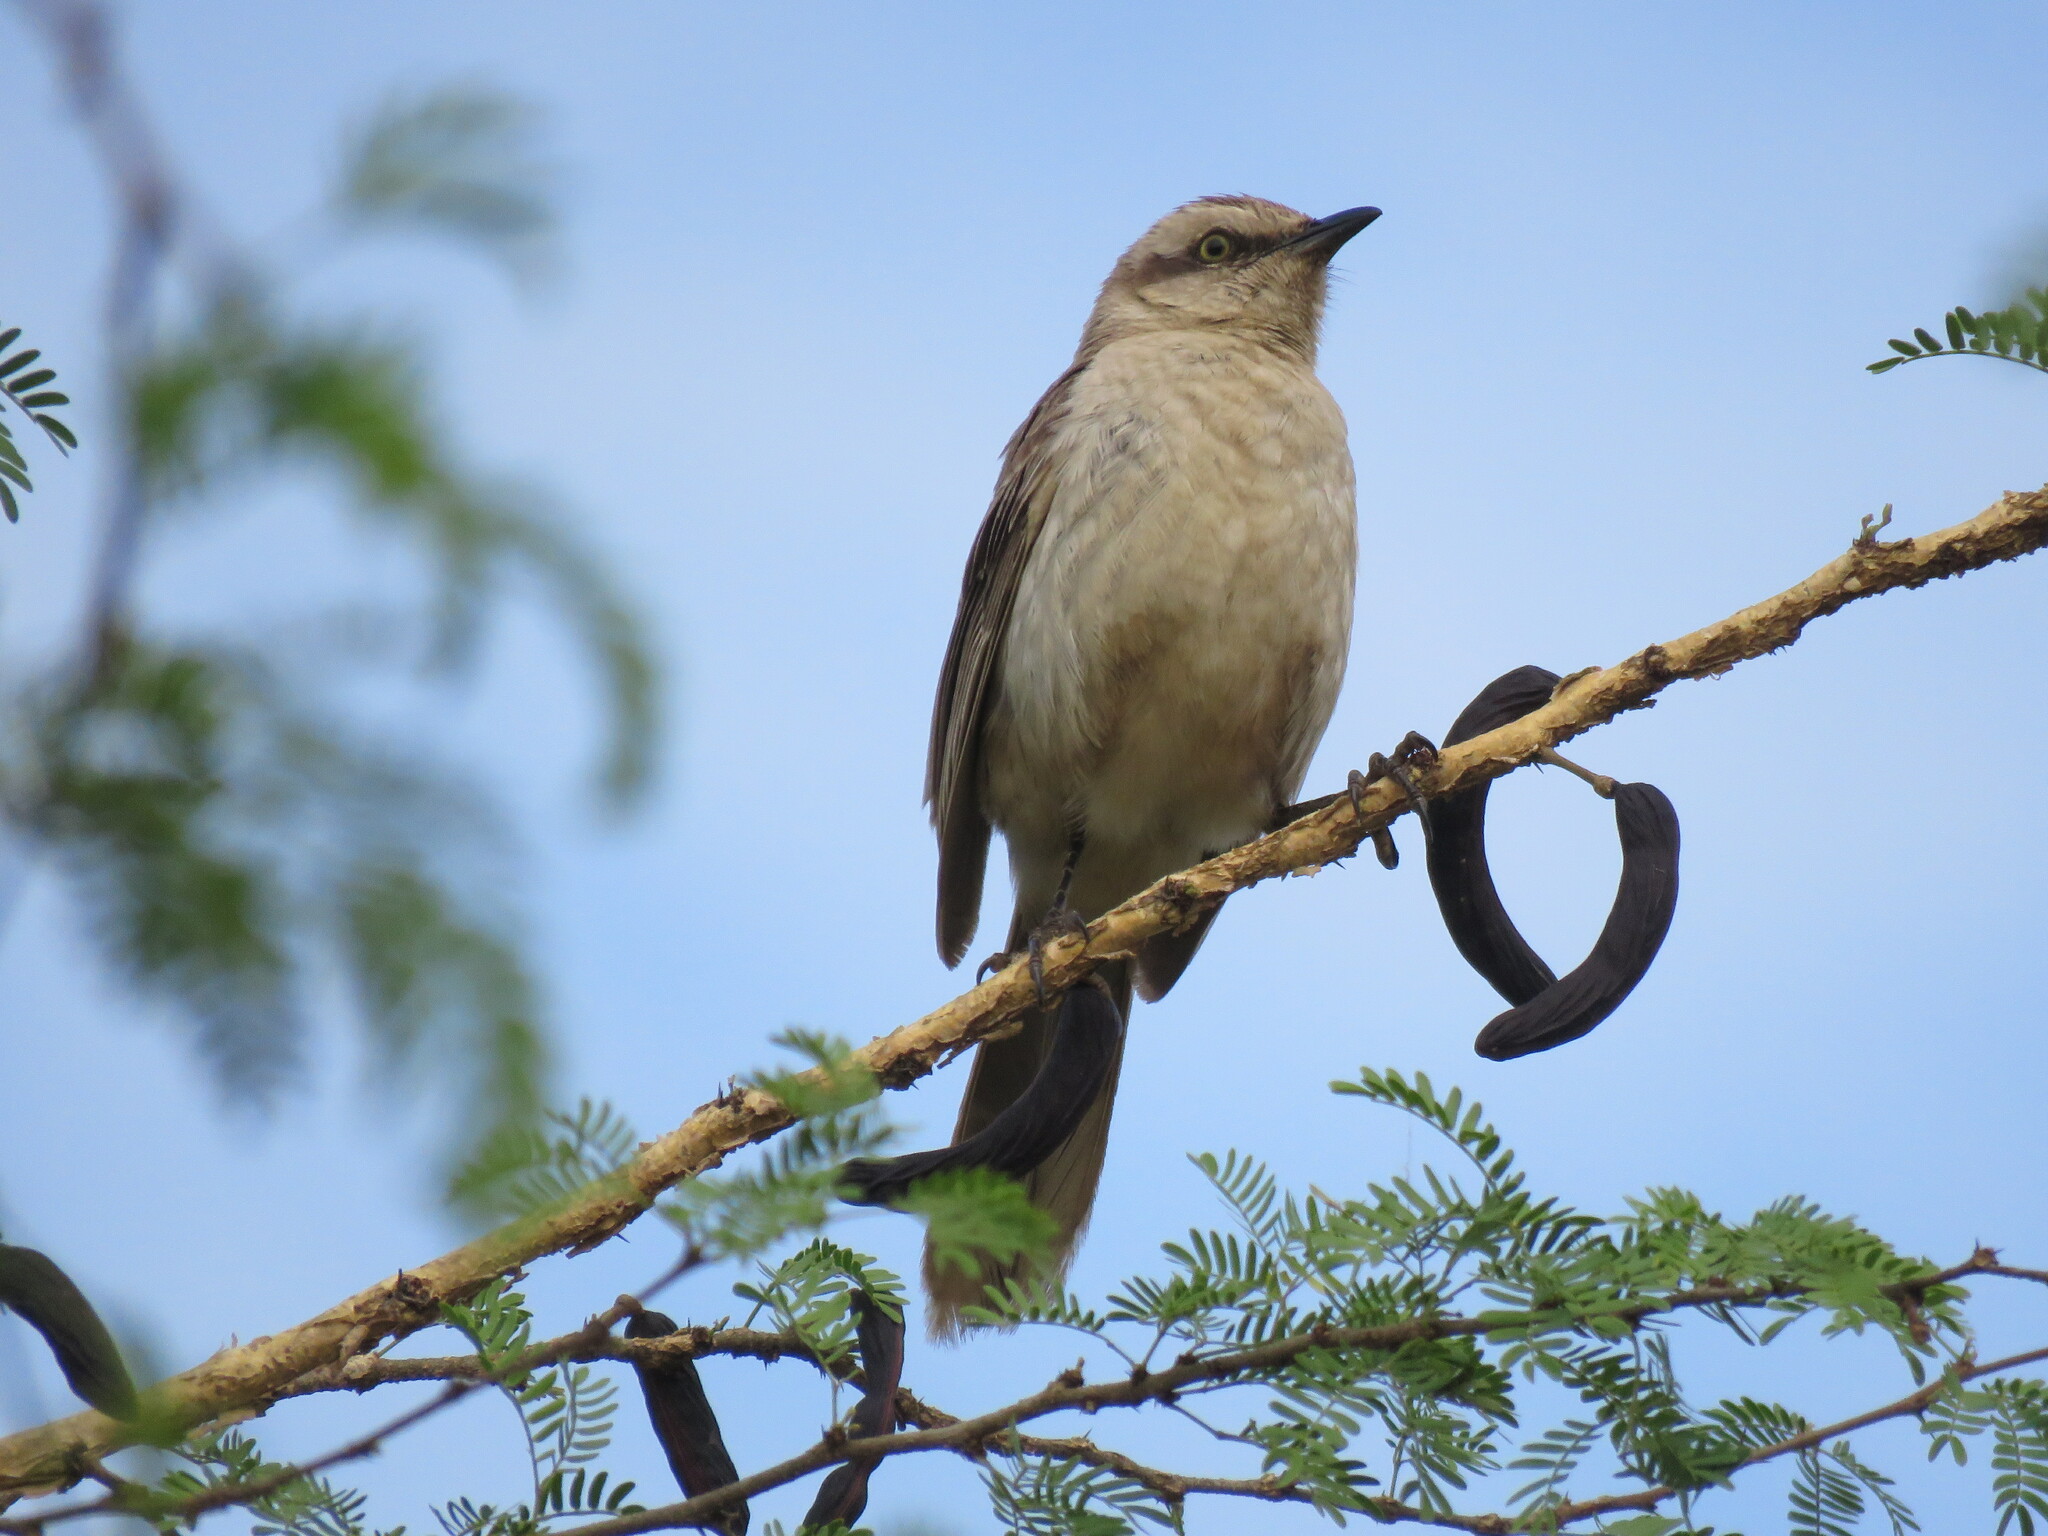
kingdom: Animalia
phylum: Chordata
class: Aves
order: Passeriformes
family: Mimidae
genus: Mimus
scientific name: Mimus saturninus
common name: Chalk-browed mockingbird
